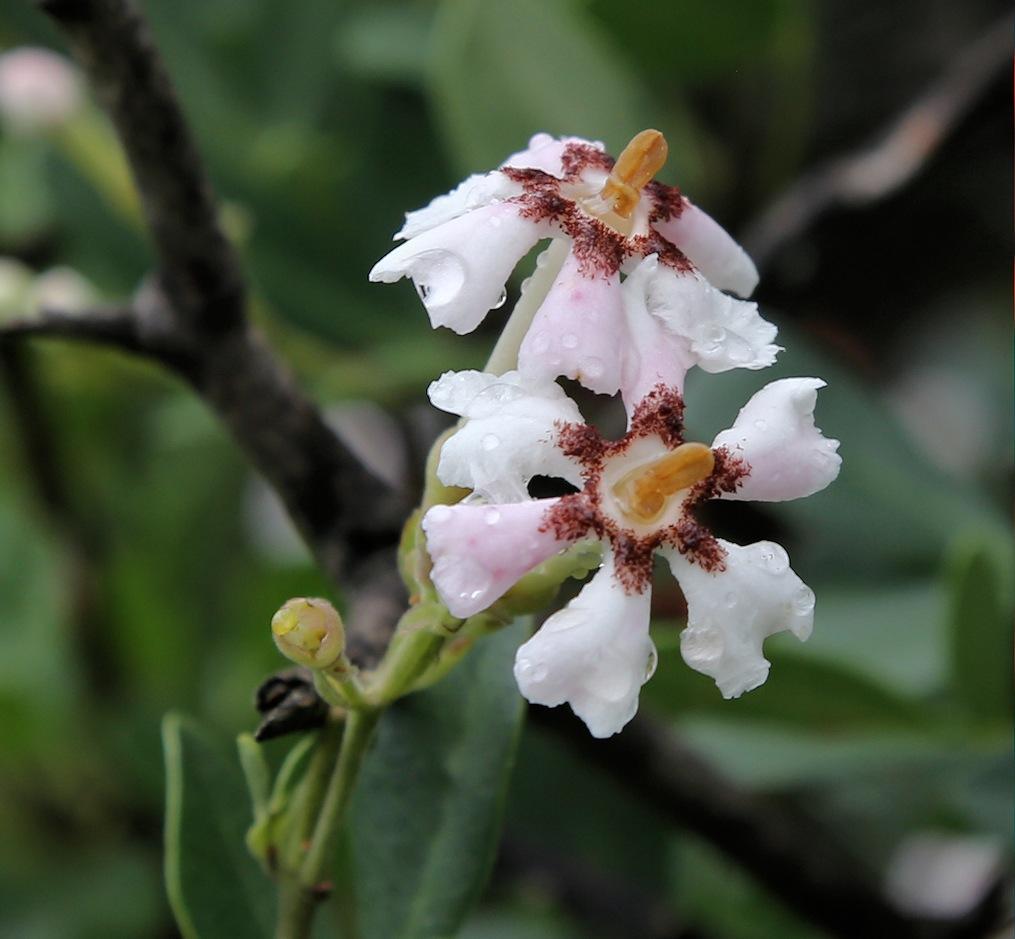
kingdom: Plantae
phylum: Tracheophyta
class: Magnoliopsida
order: Lamiales
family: Oleaceae
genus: Schrebera
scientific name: Schrebera alata
